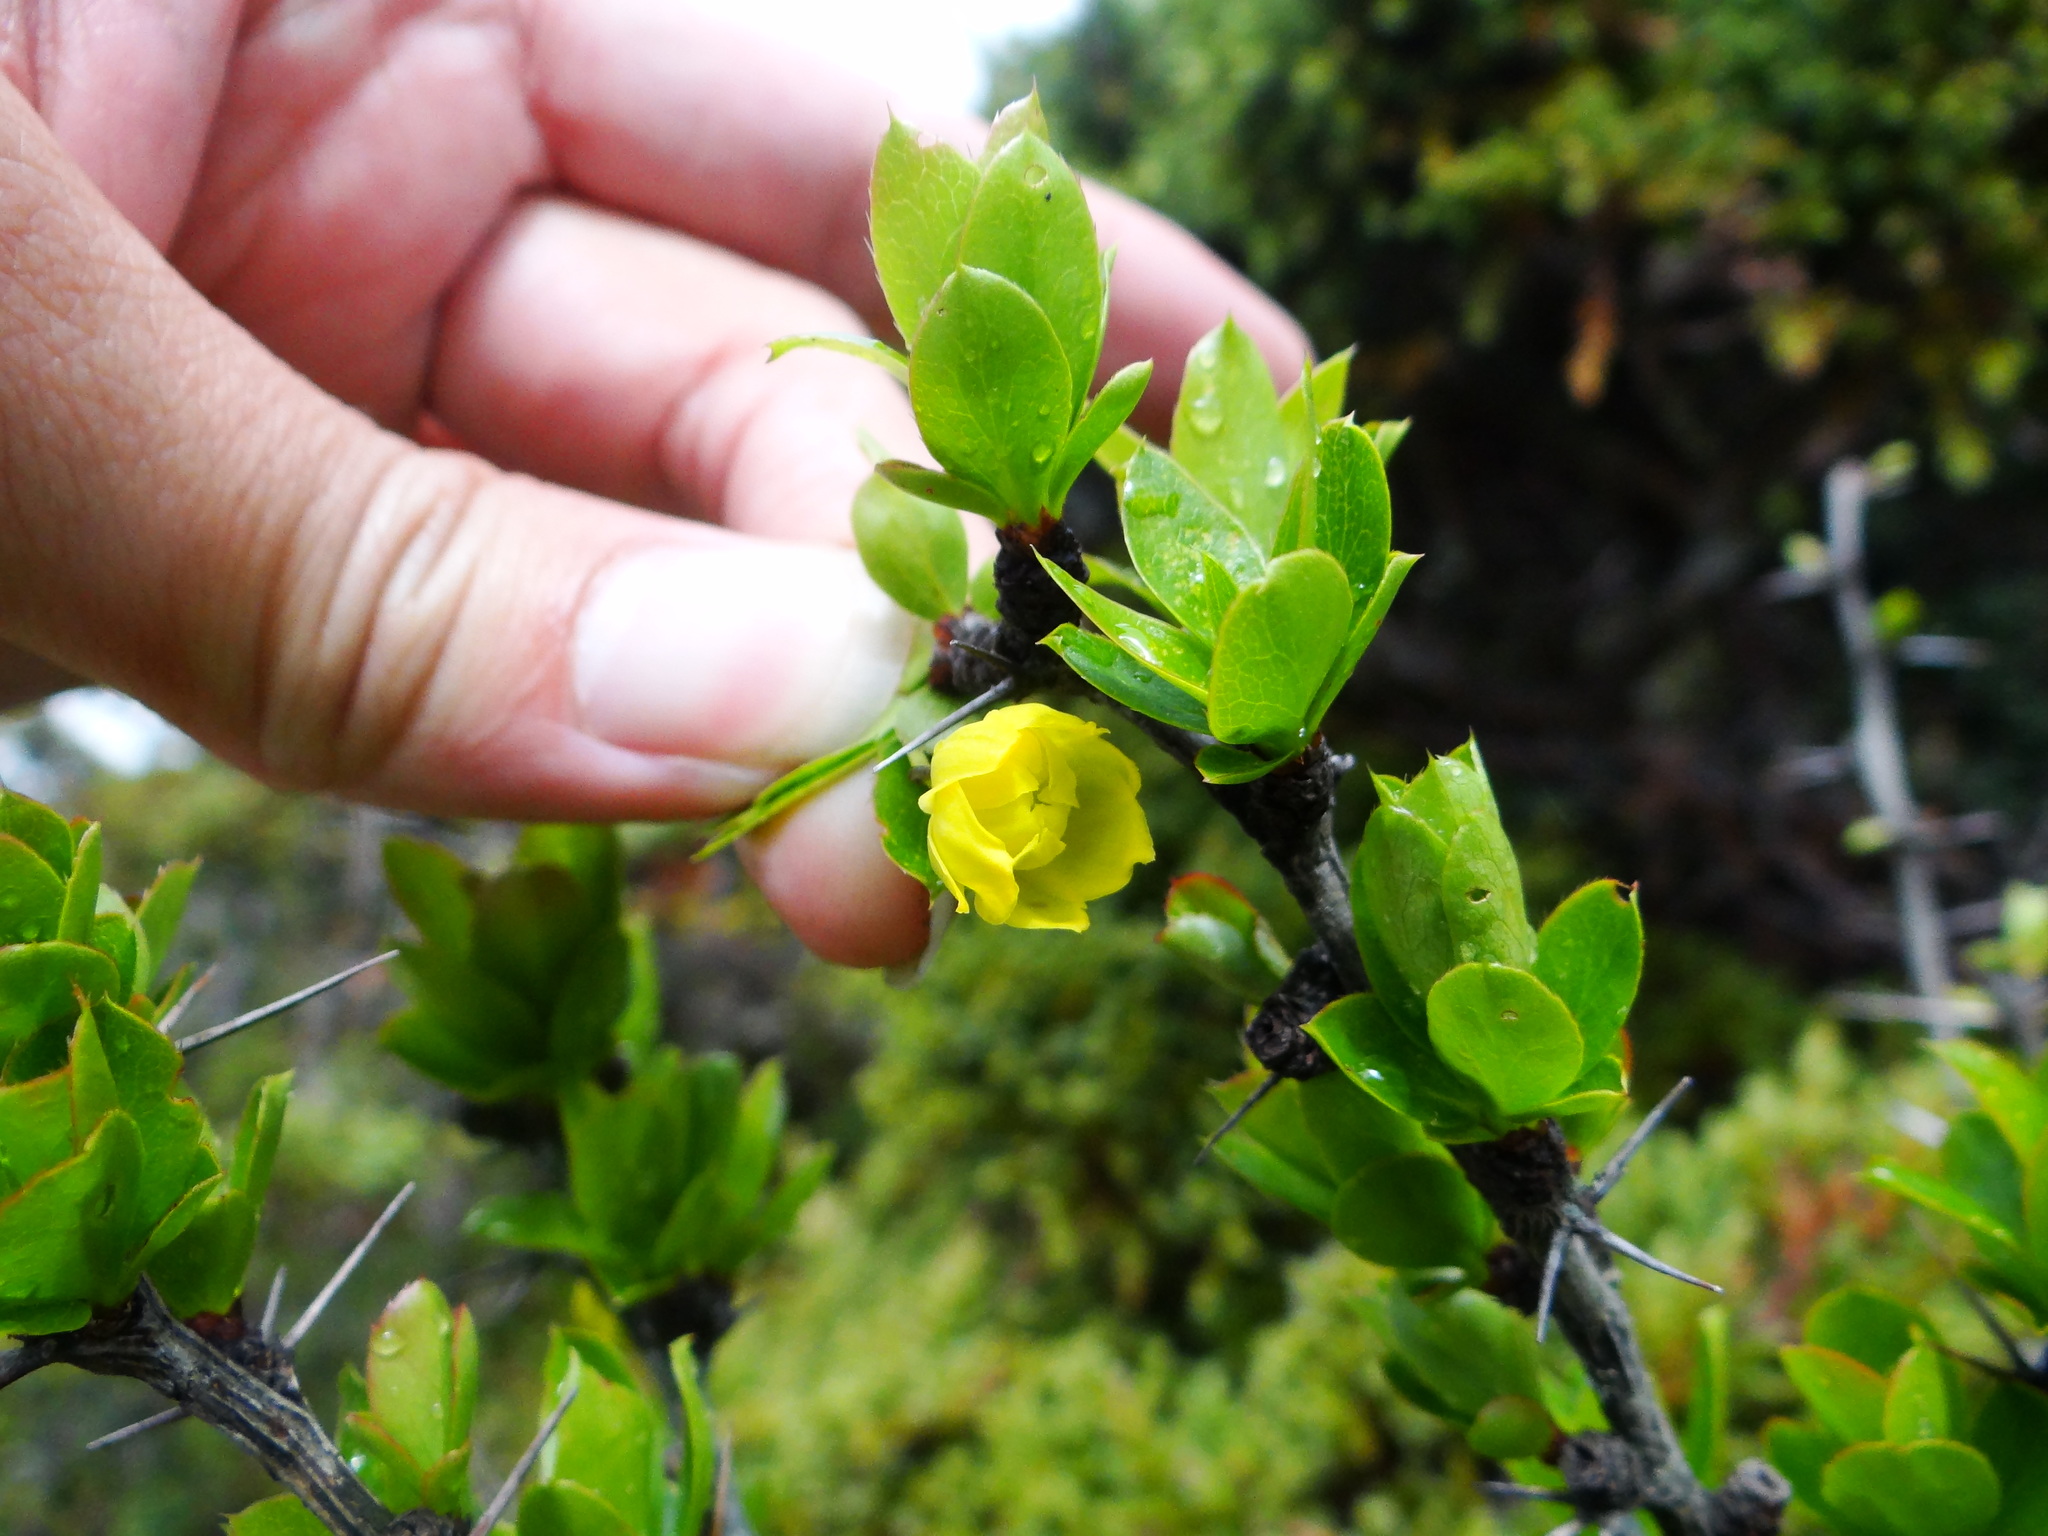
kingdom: Plantae
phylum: Tracheophyta
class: Magnoliopsida
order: Ranunculales
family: Berberidaceae
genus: Berberis
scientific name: Berberis morrisonensis
